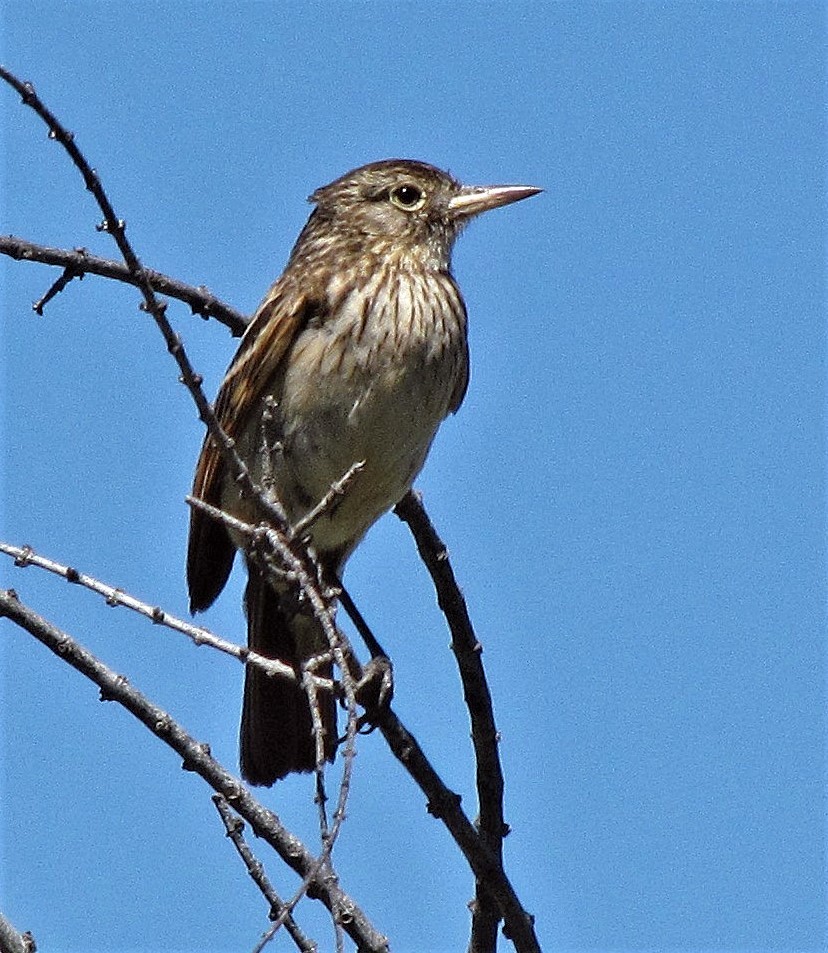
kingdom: Animalia
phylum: Chordata
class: Aves
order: Passeriformes
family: Tyrannidae
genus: Hymenops
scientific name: Hymenops perspicillatus
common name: Spectacled tyrant
